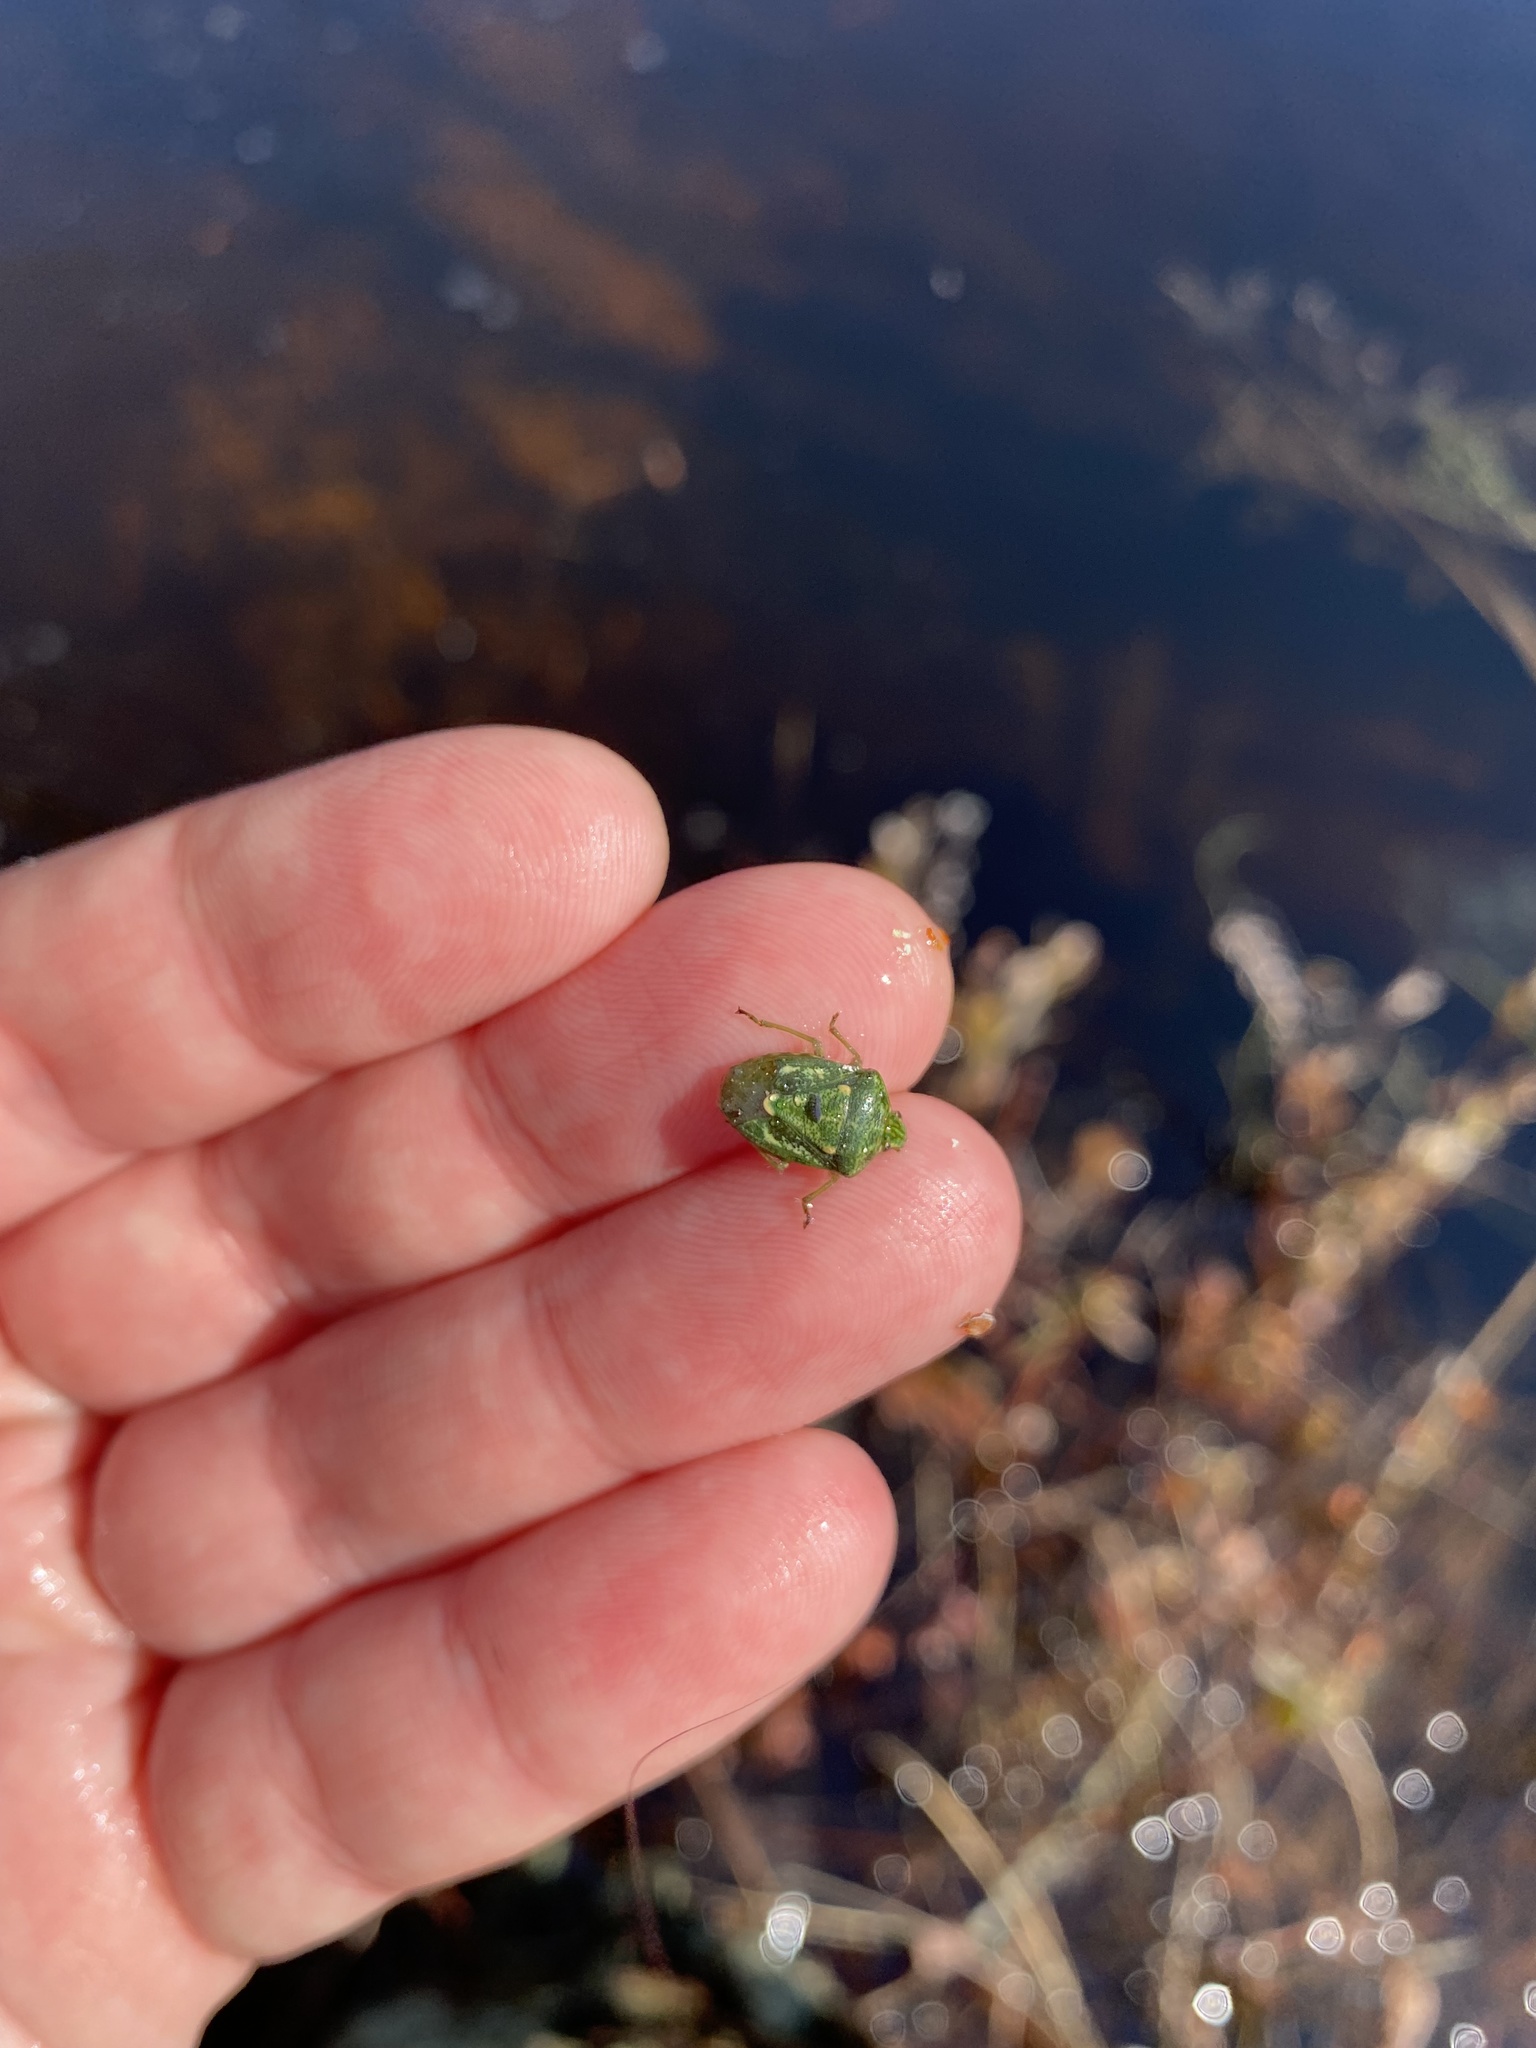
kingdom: Animalia
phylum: Arthropoda
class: Insecta
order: Hemiptera
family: Pentatomidae
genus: Banasa
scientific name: Banasa euchlora
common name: Cedar berry bug
